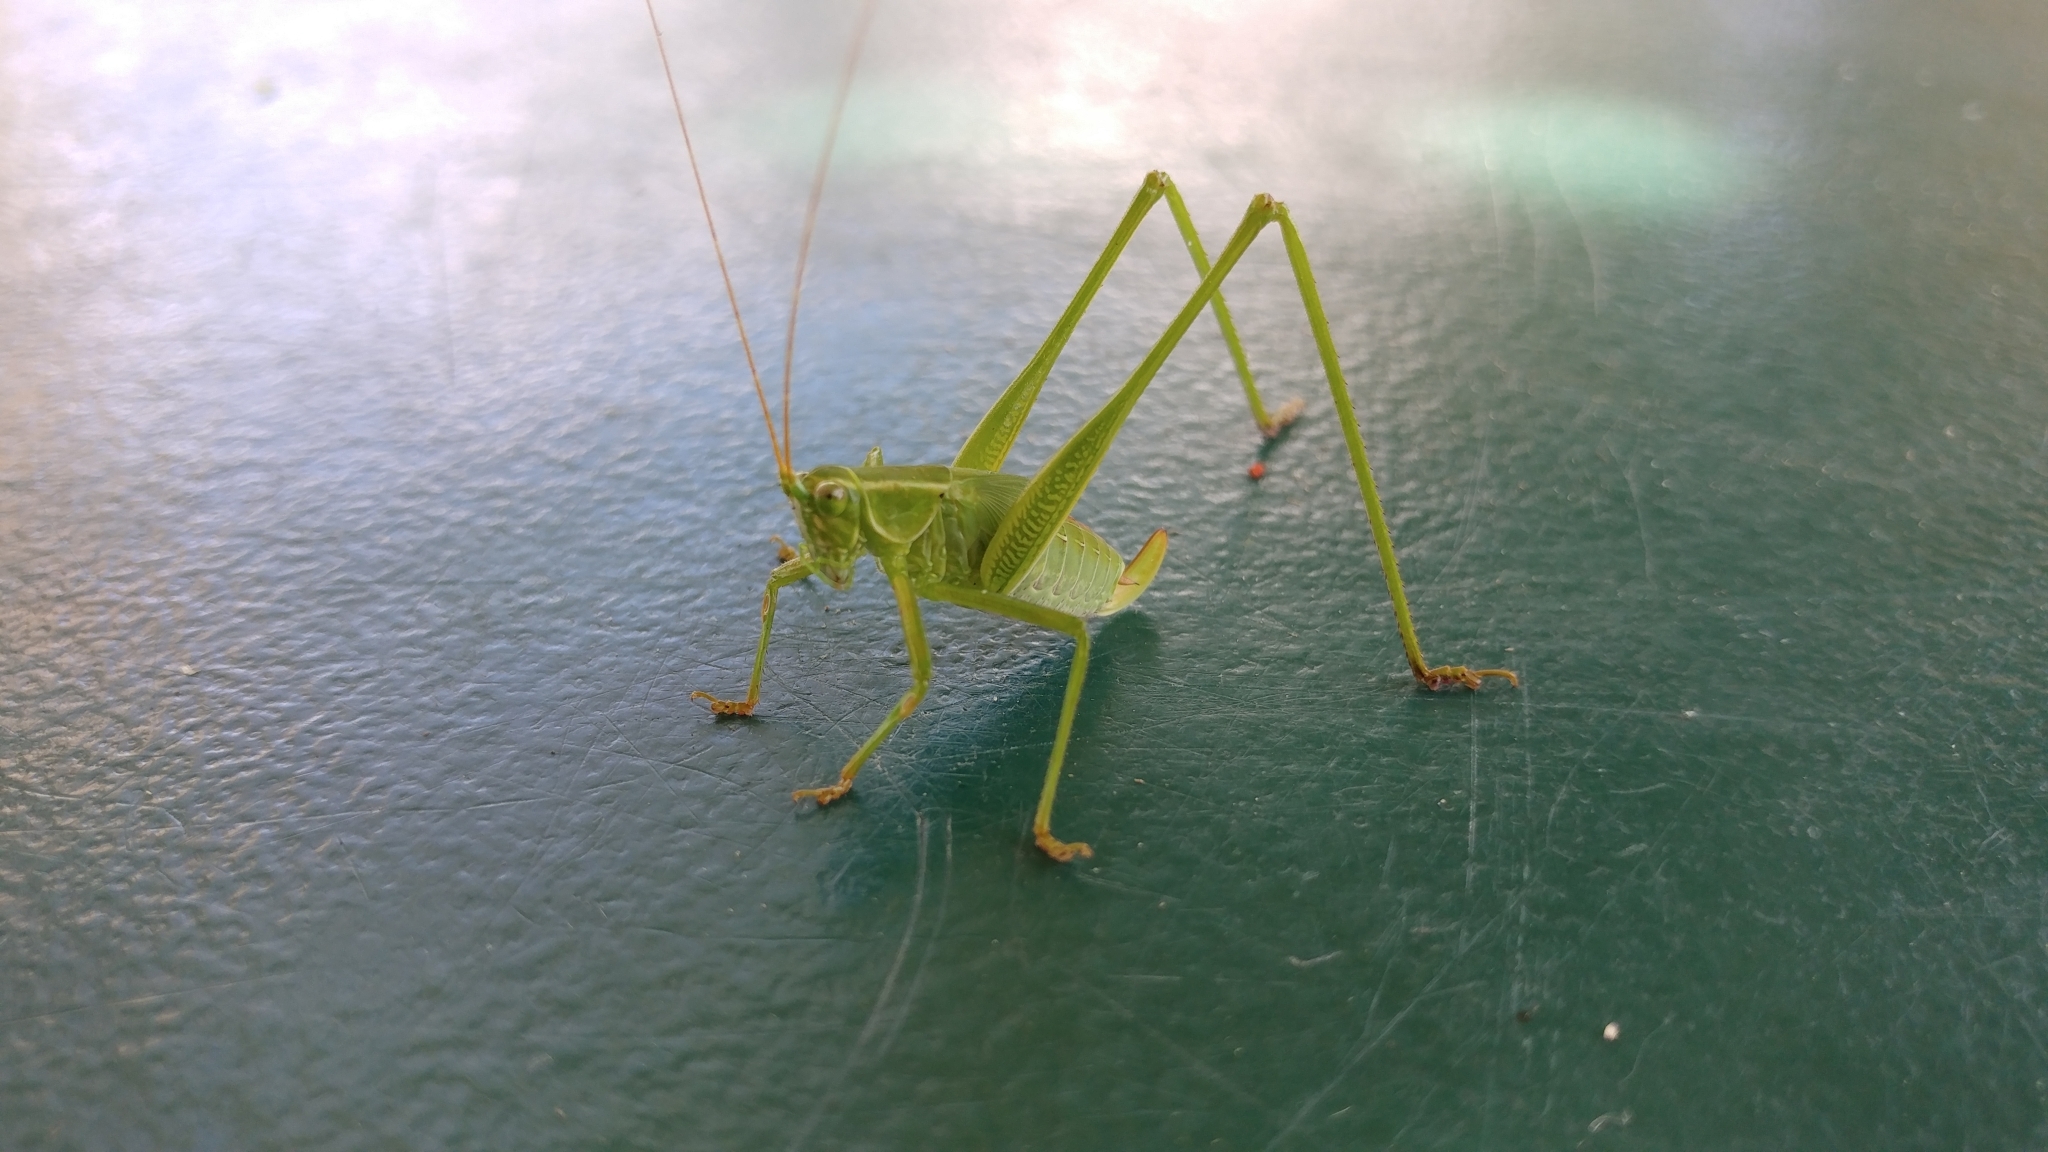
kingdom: Animalia
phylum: Arthropoda
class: Insecta
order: Orthoptera
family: Tettigoniidae
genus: Scudderia
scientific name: Scudderia furcata
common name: Fork-tailed bush katydid
